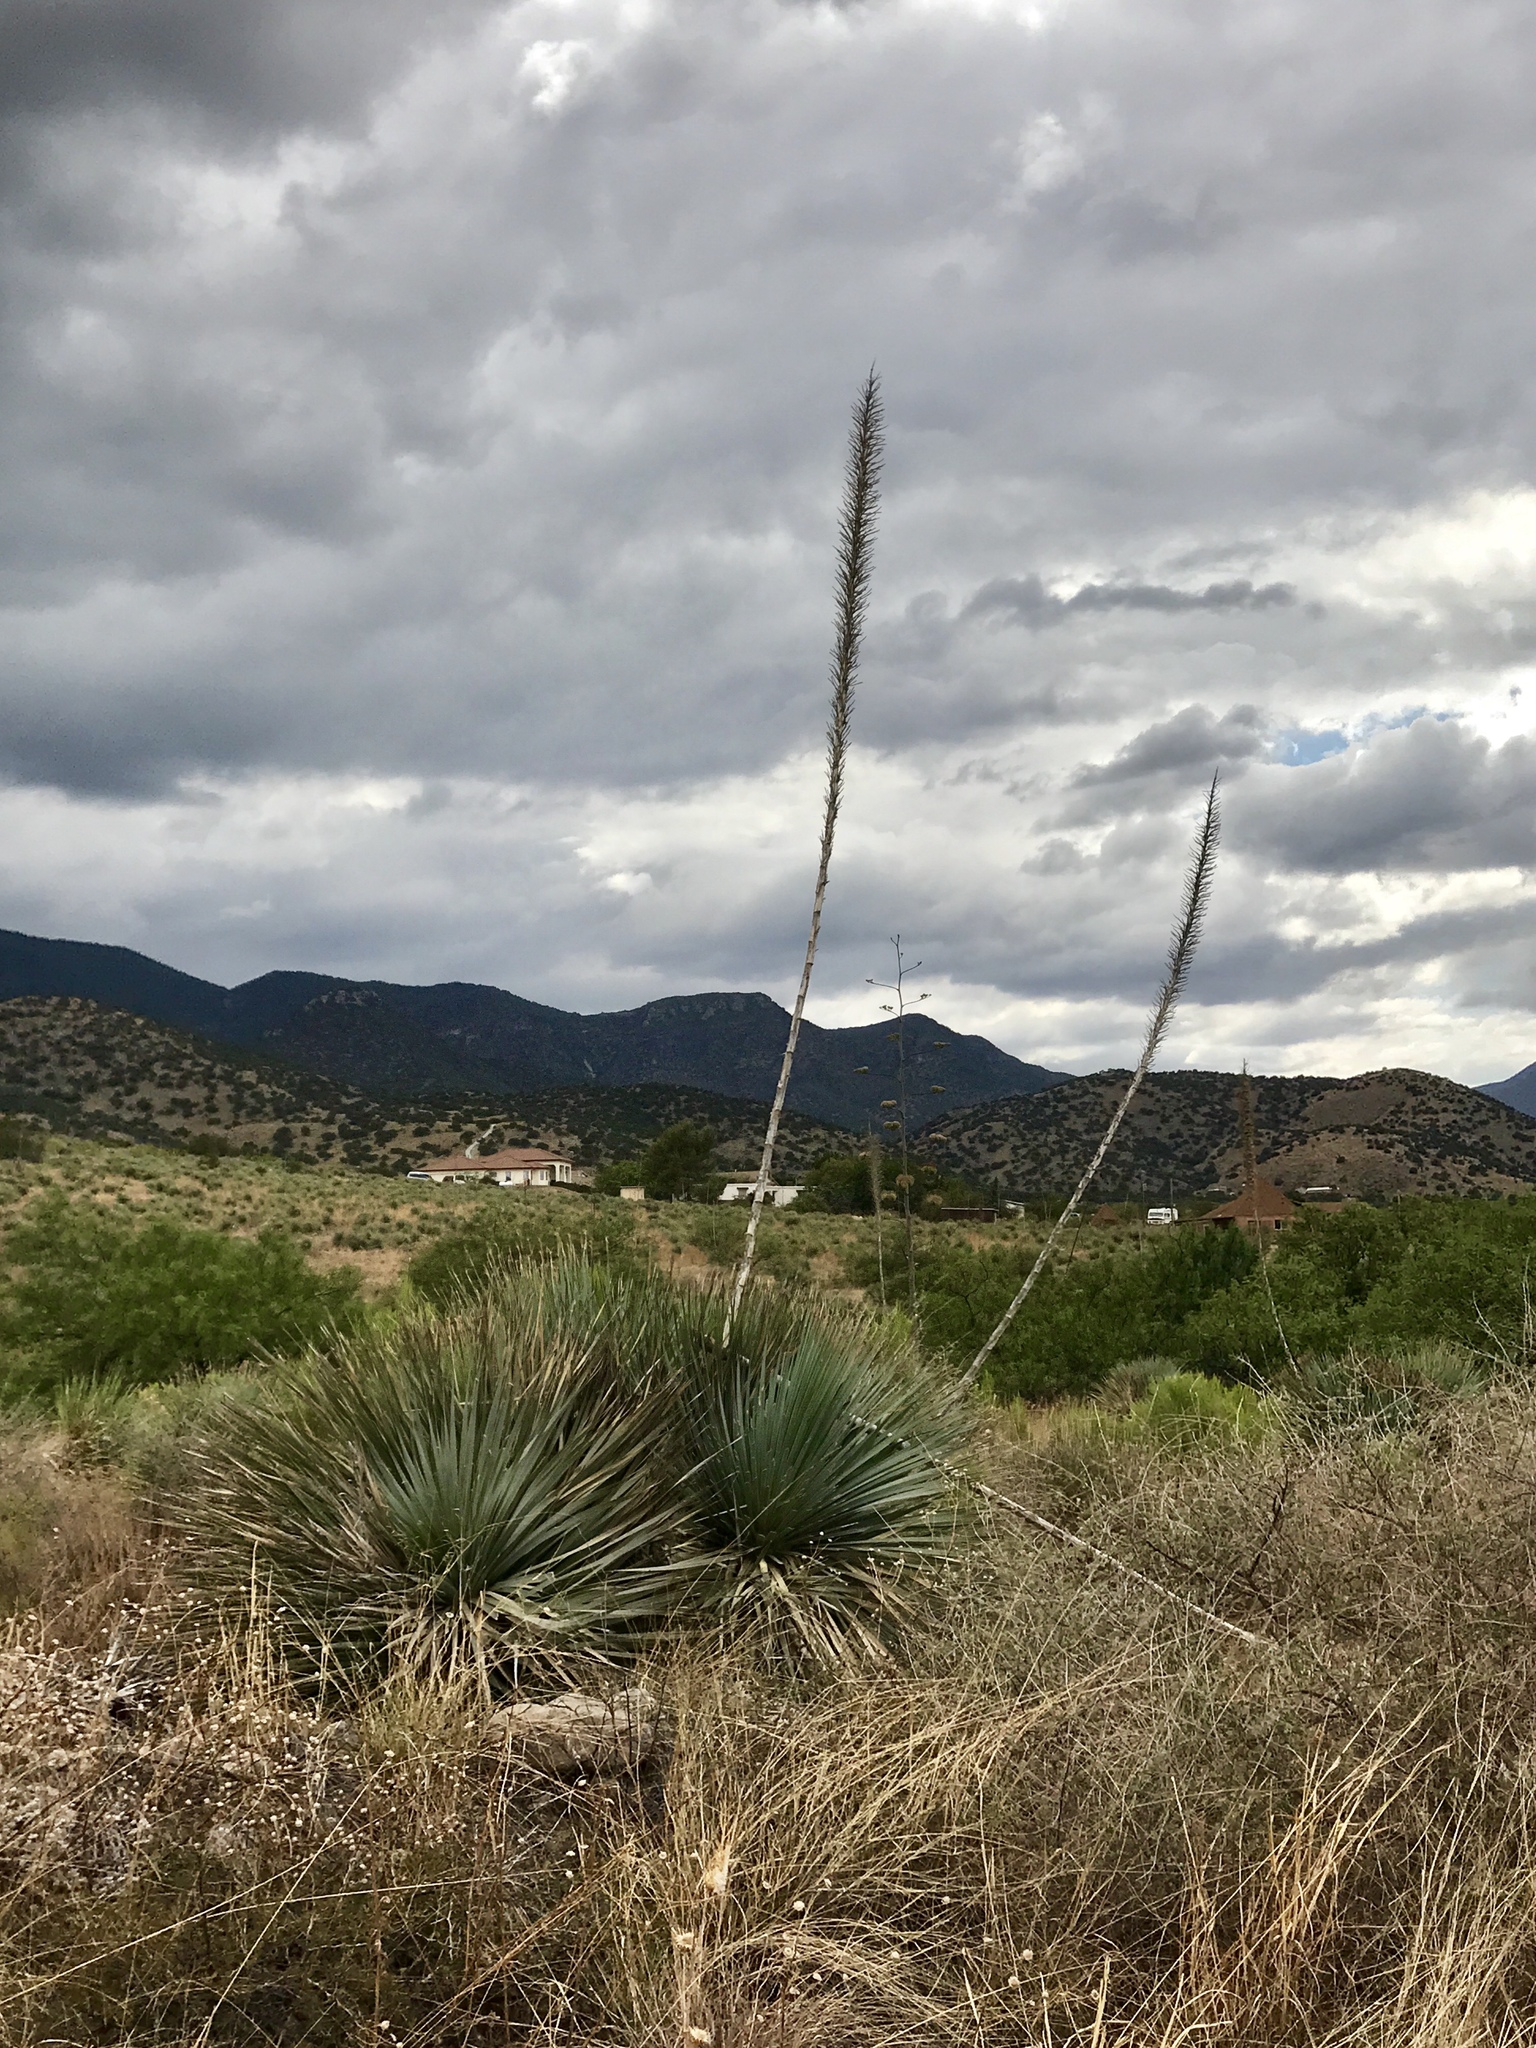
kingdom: Plantae
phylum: Tracheophyta
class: Liliopsida
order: Asparagales
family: Asparagaceae
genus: Dasylirion
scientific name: Dasylirion wheeleri
